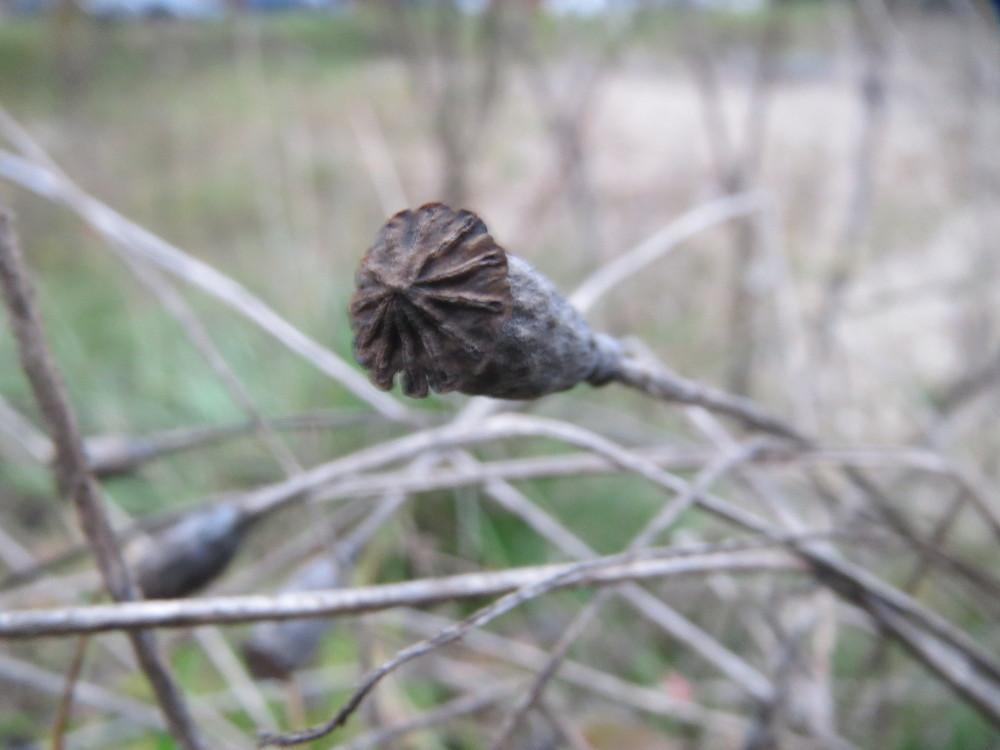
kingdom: Plantae
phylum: Tracheophyta
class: Magnoliopsida
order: Ranunculales
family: Papaveraceae
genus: Papaver
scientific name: Papaver rhoeas
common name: Corn poppy
